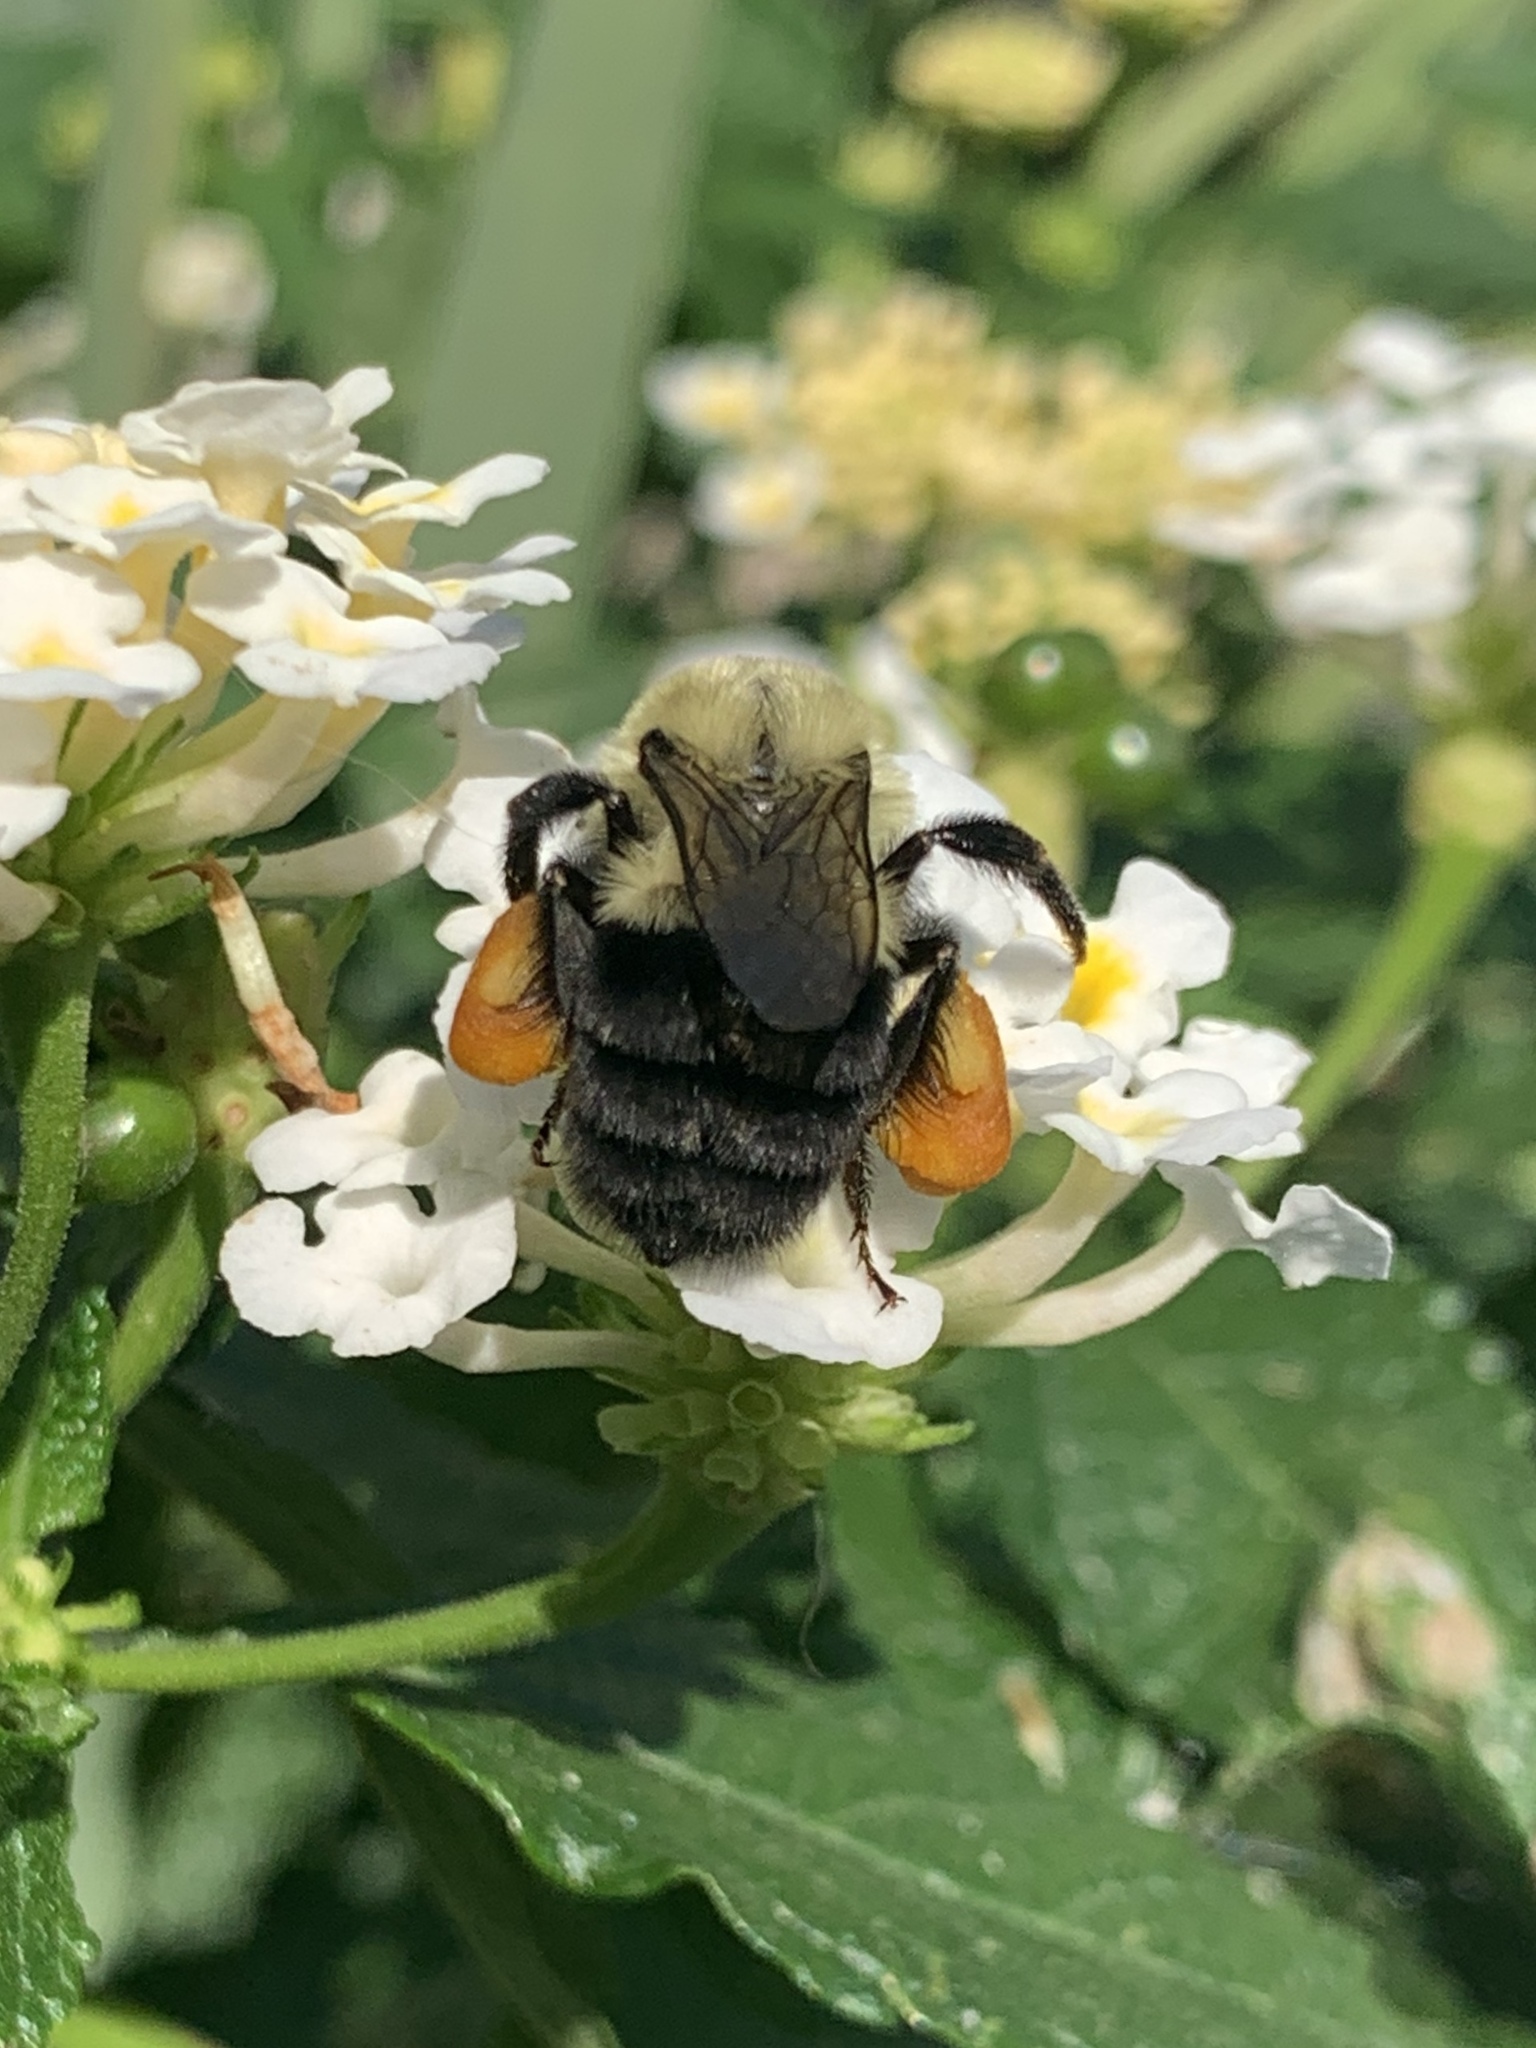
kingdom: Animalia
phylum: Arthropoda
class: Insecta
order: Hymenoptera
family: Apidae
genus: Bombus
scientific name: Bombus impatiens
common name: Common eastern bumble bee
